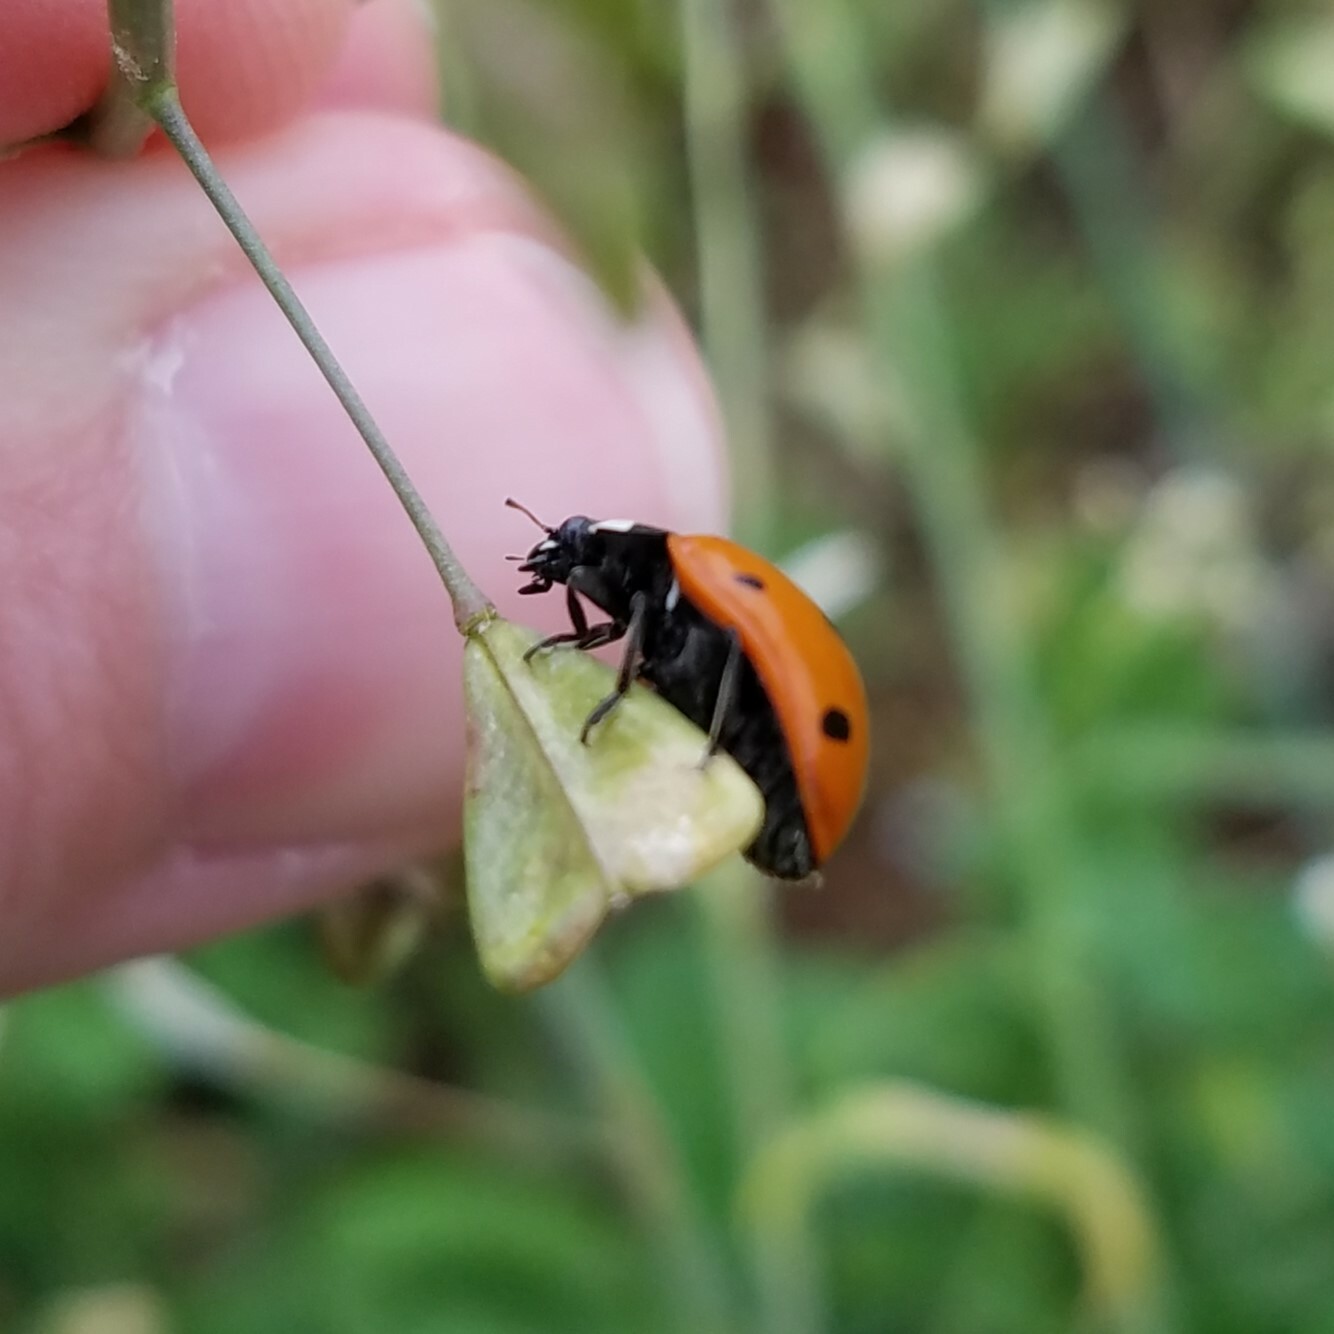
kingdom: Animalia
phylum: Arthropoda
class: Insecta
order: Coleoptera
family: Coccinellidae
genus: Coccinella
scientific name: Coccinella septempunctata
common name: Sevenspotted lady beetle
